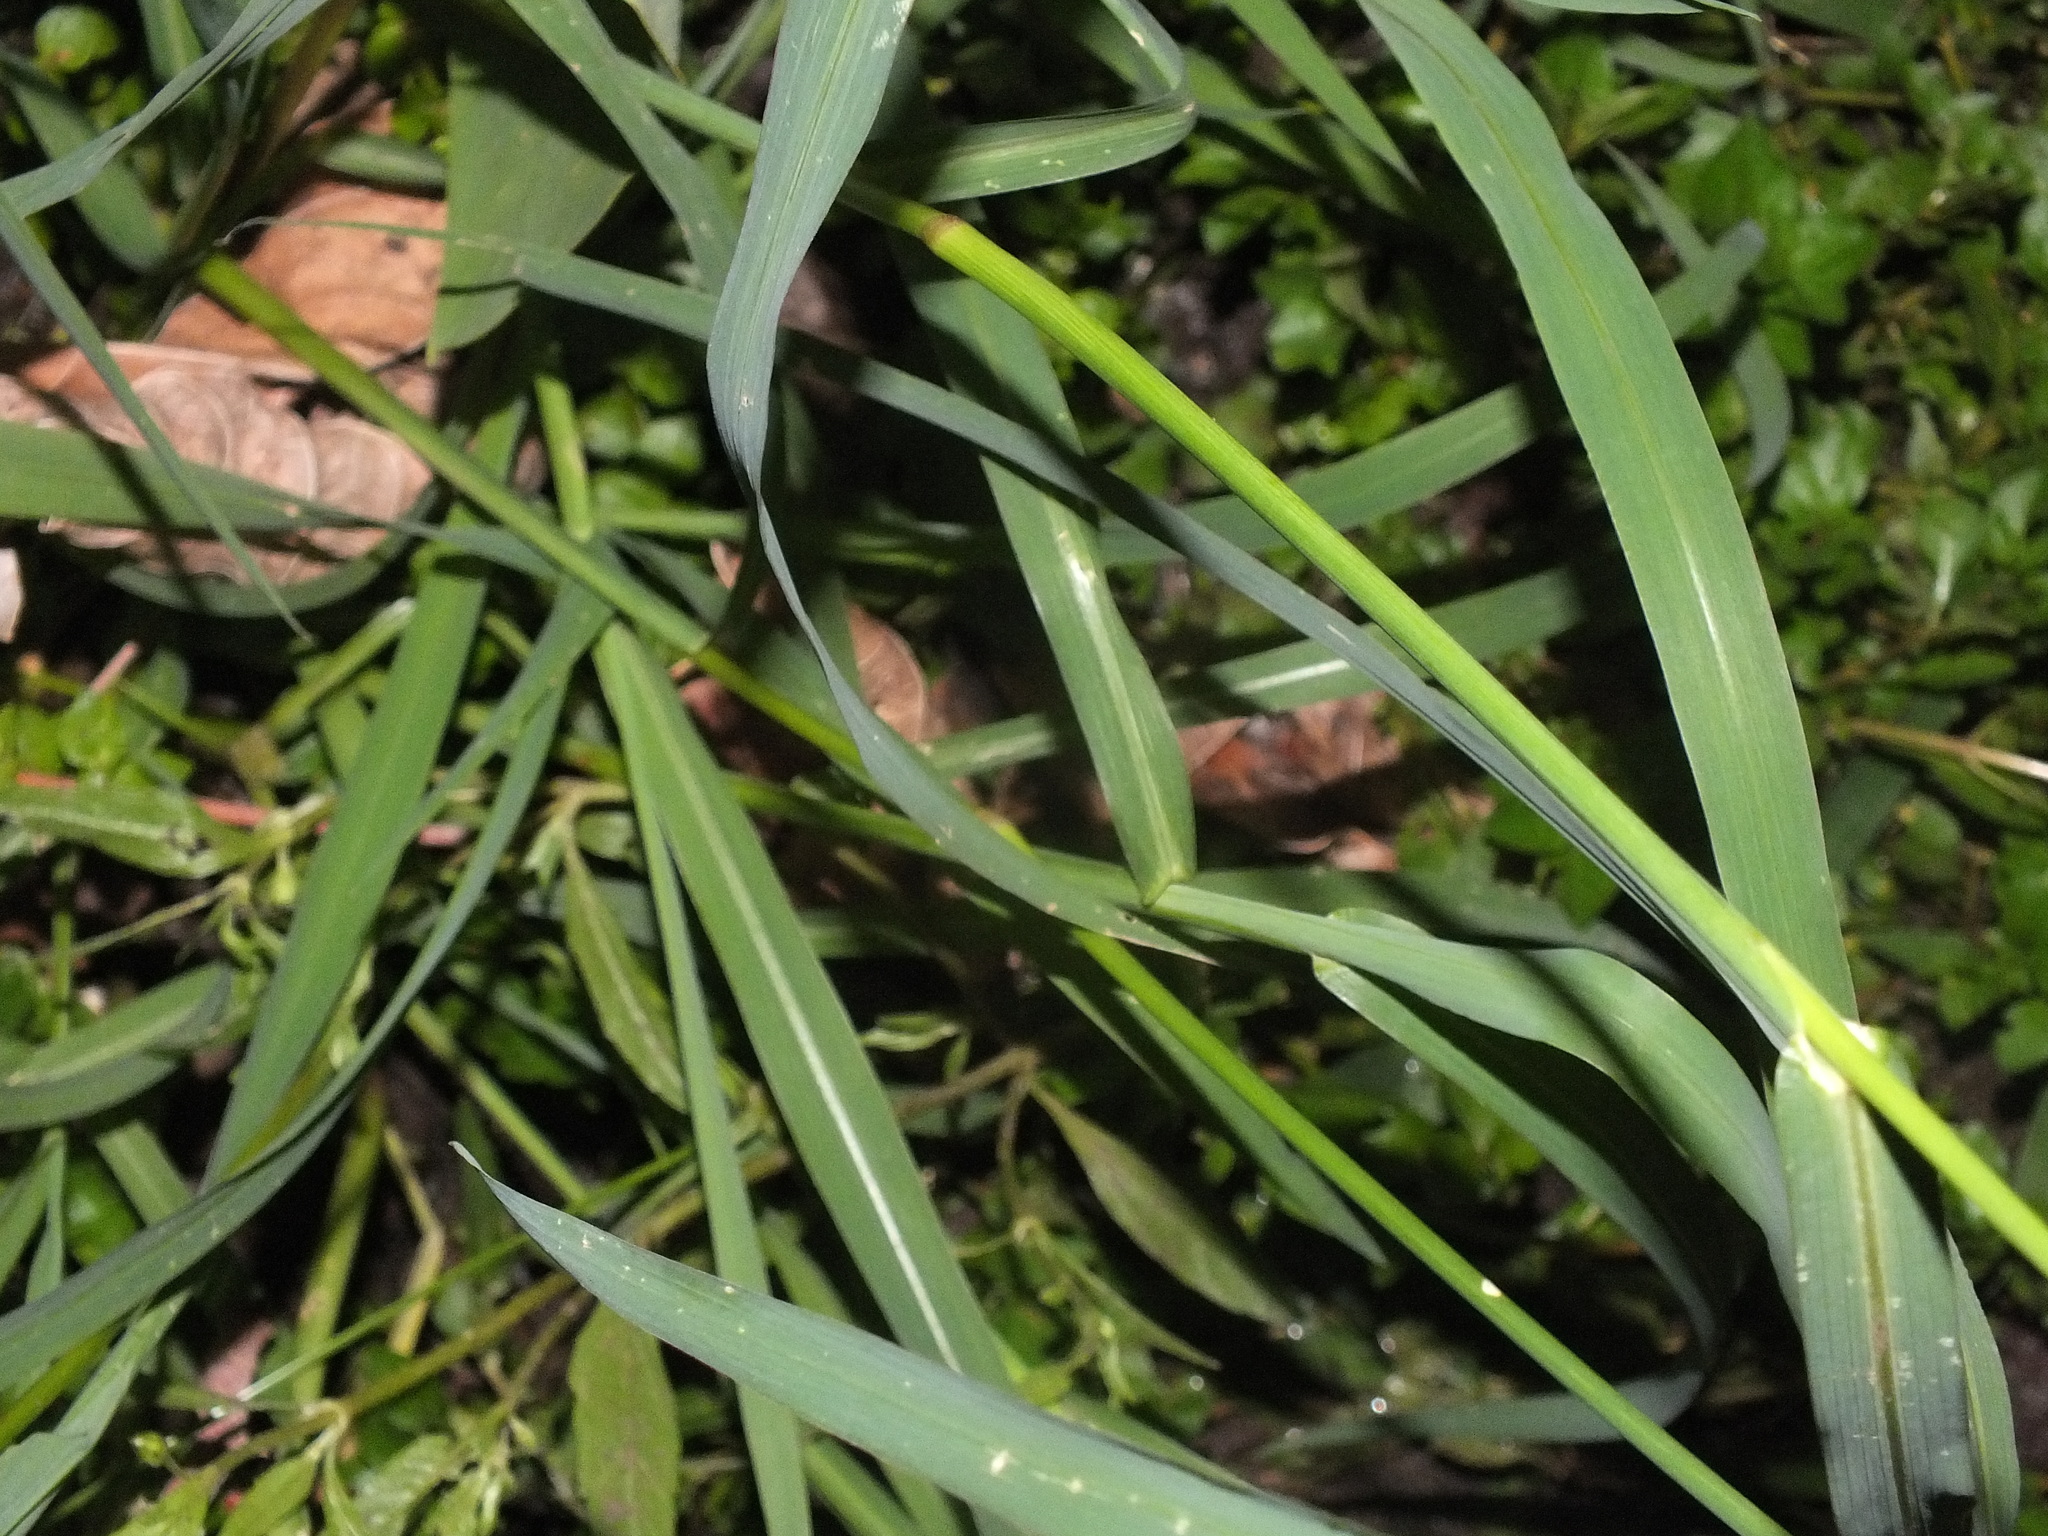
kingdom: Plantae
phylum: Tracheophyta
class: Liliopsida
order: Poales
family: Poaceae
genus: Echinochloa
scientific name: Echinochloa crus-galli
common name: Cockspur
